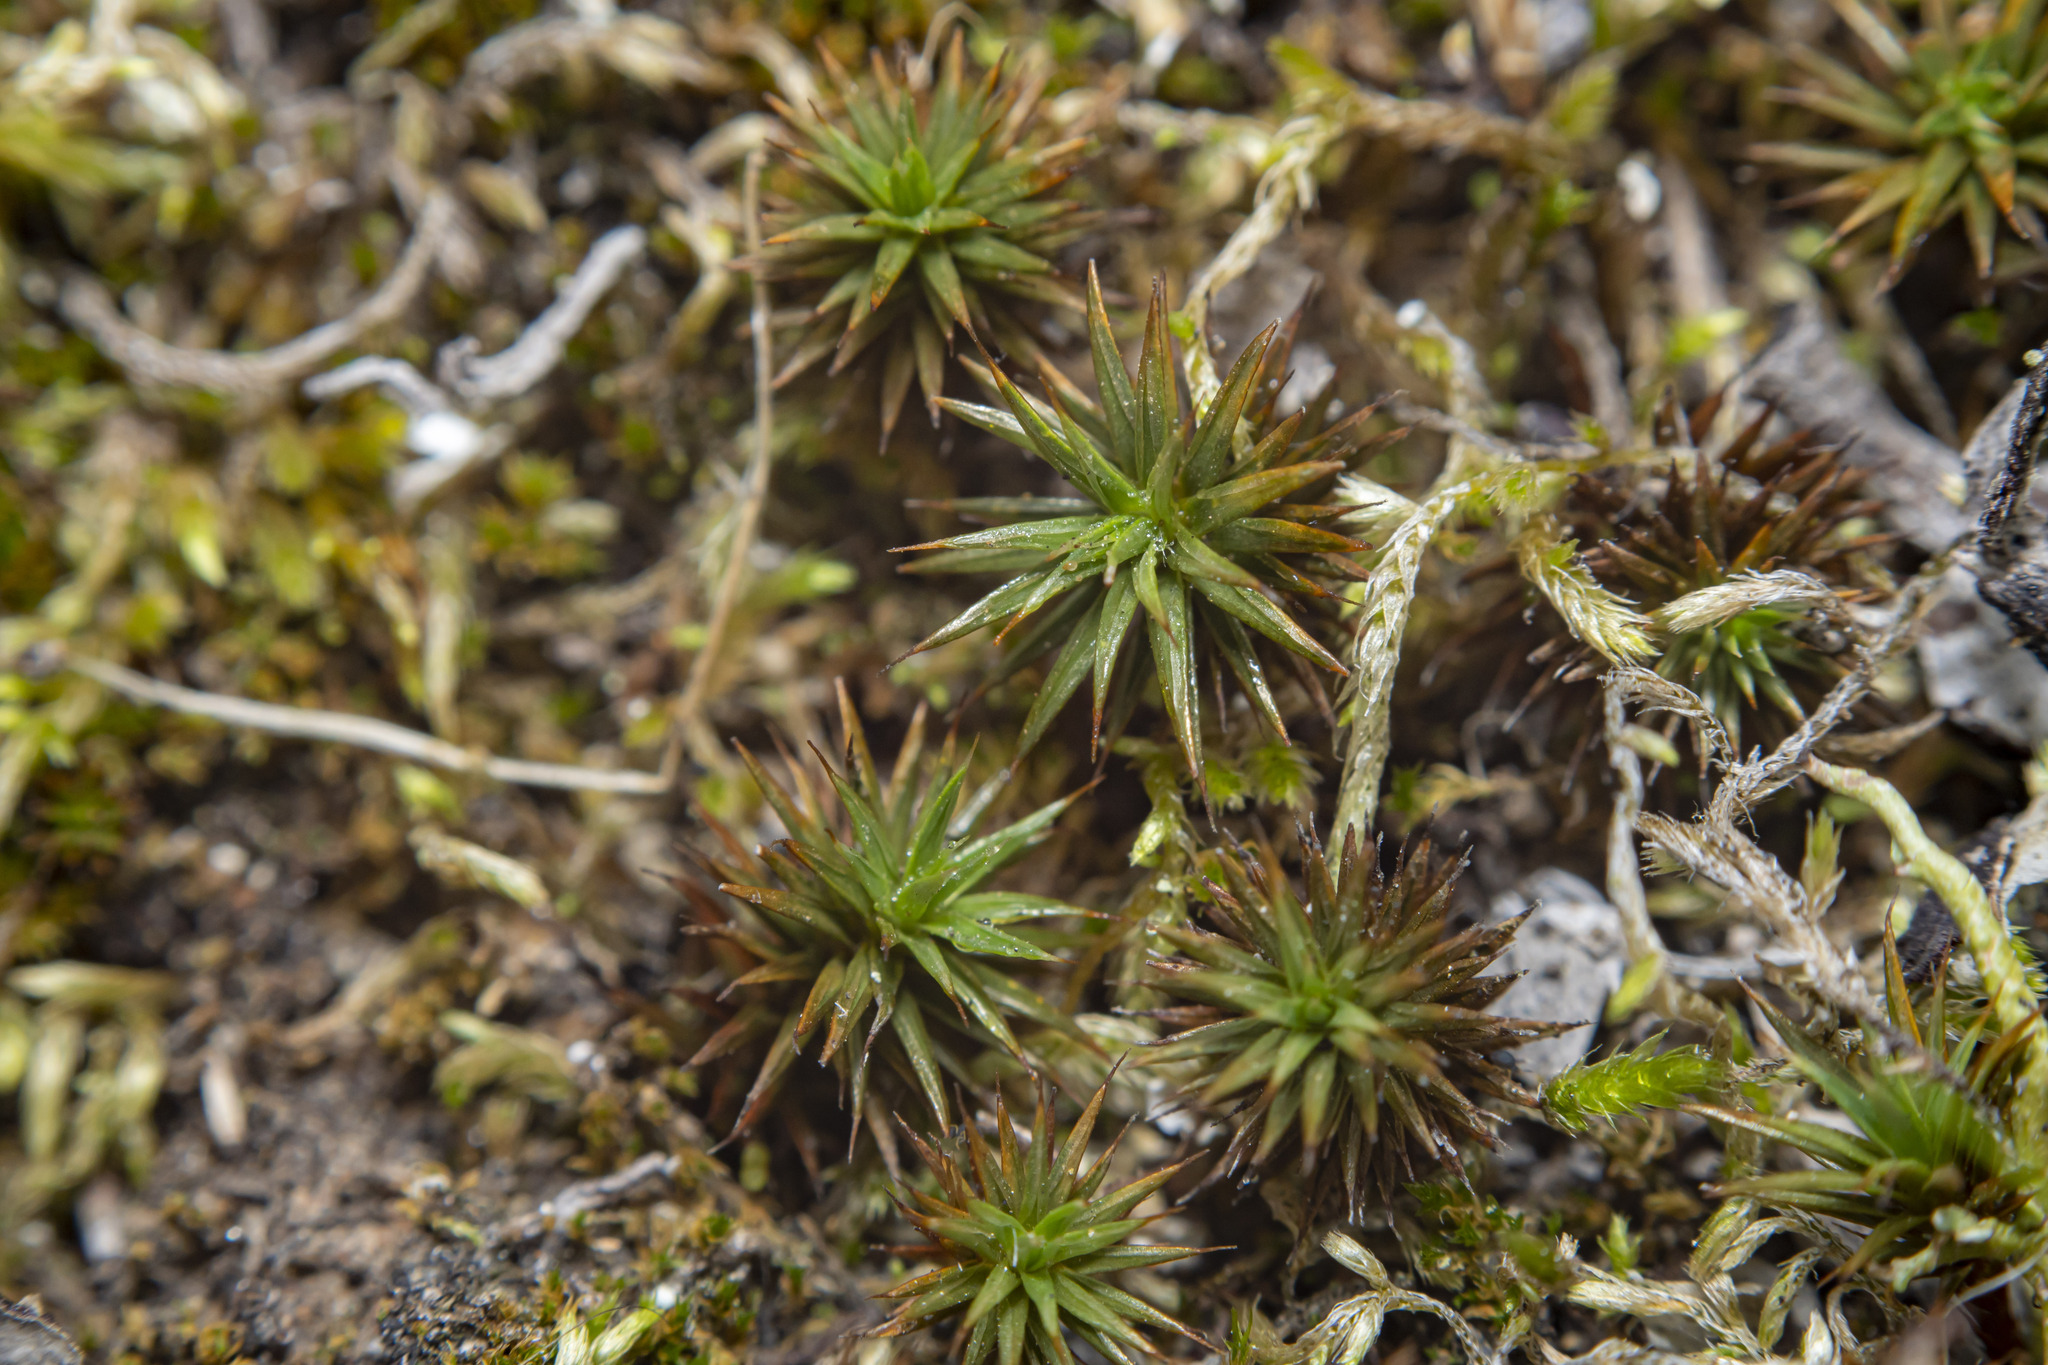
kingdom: Plantae
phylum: Bryophyta
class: Polytrichopsida
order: Polytrichales
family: Polytrichaceae
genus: Polytrichum
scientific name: Polytrichum juniperinum
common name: Juniper haircap moss
